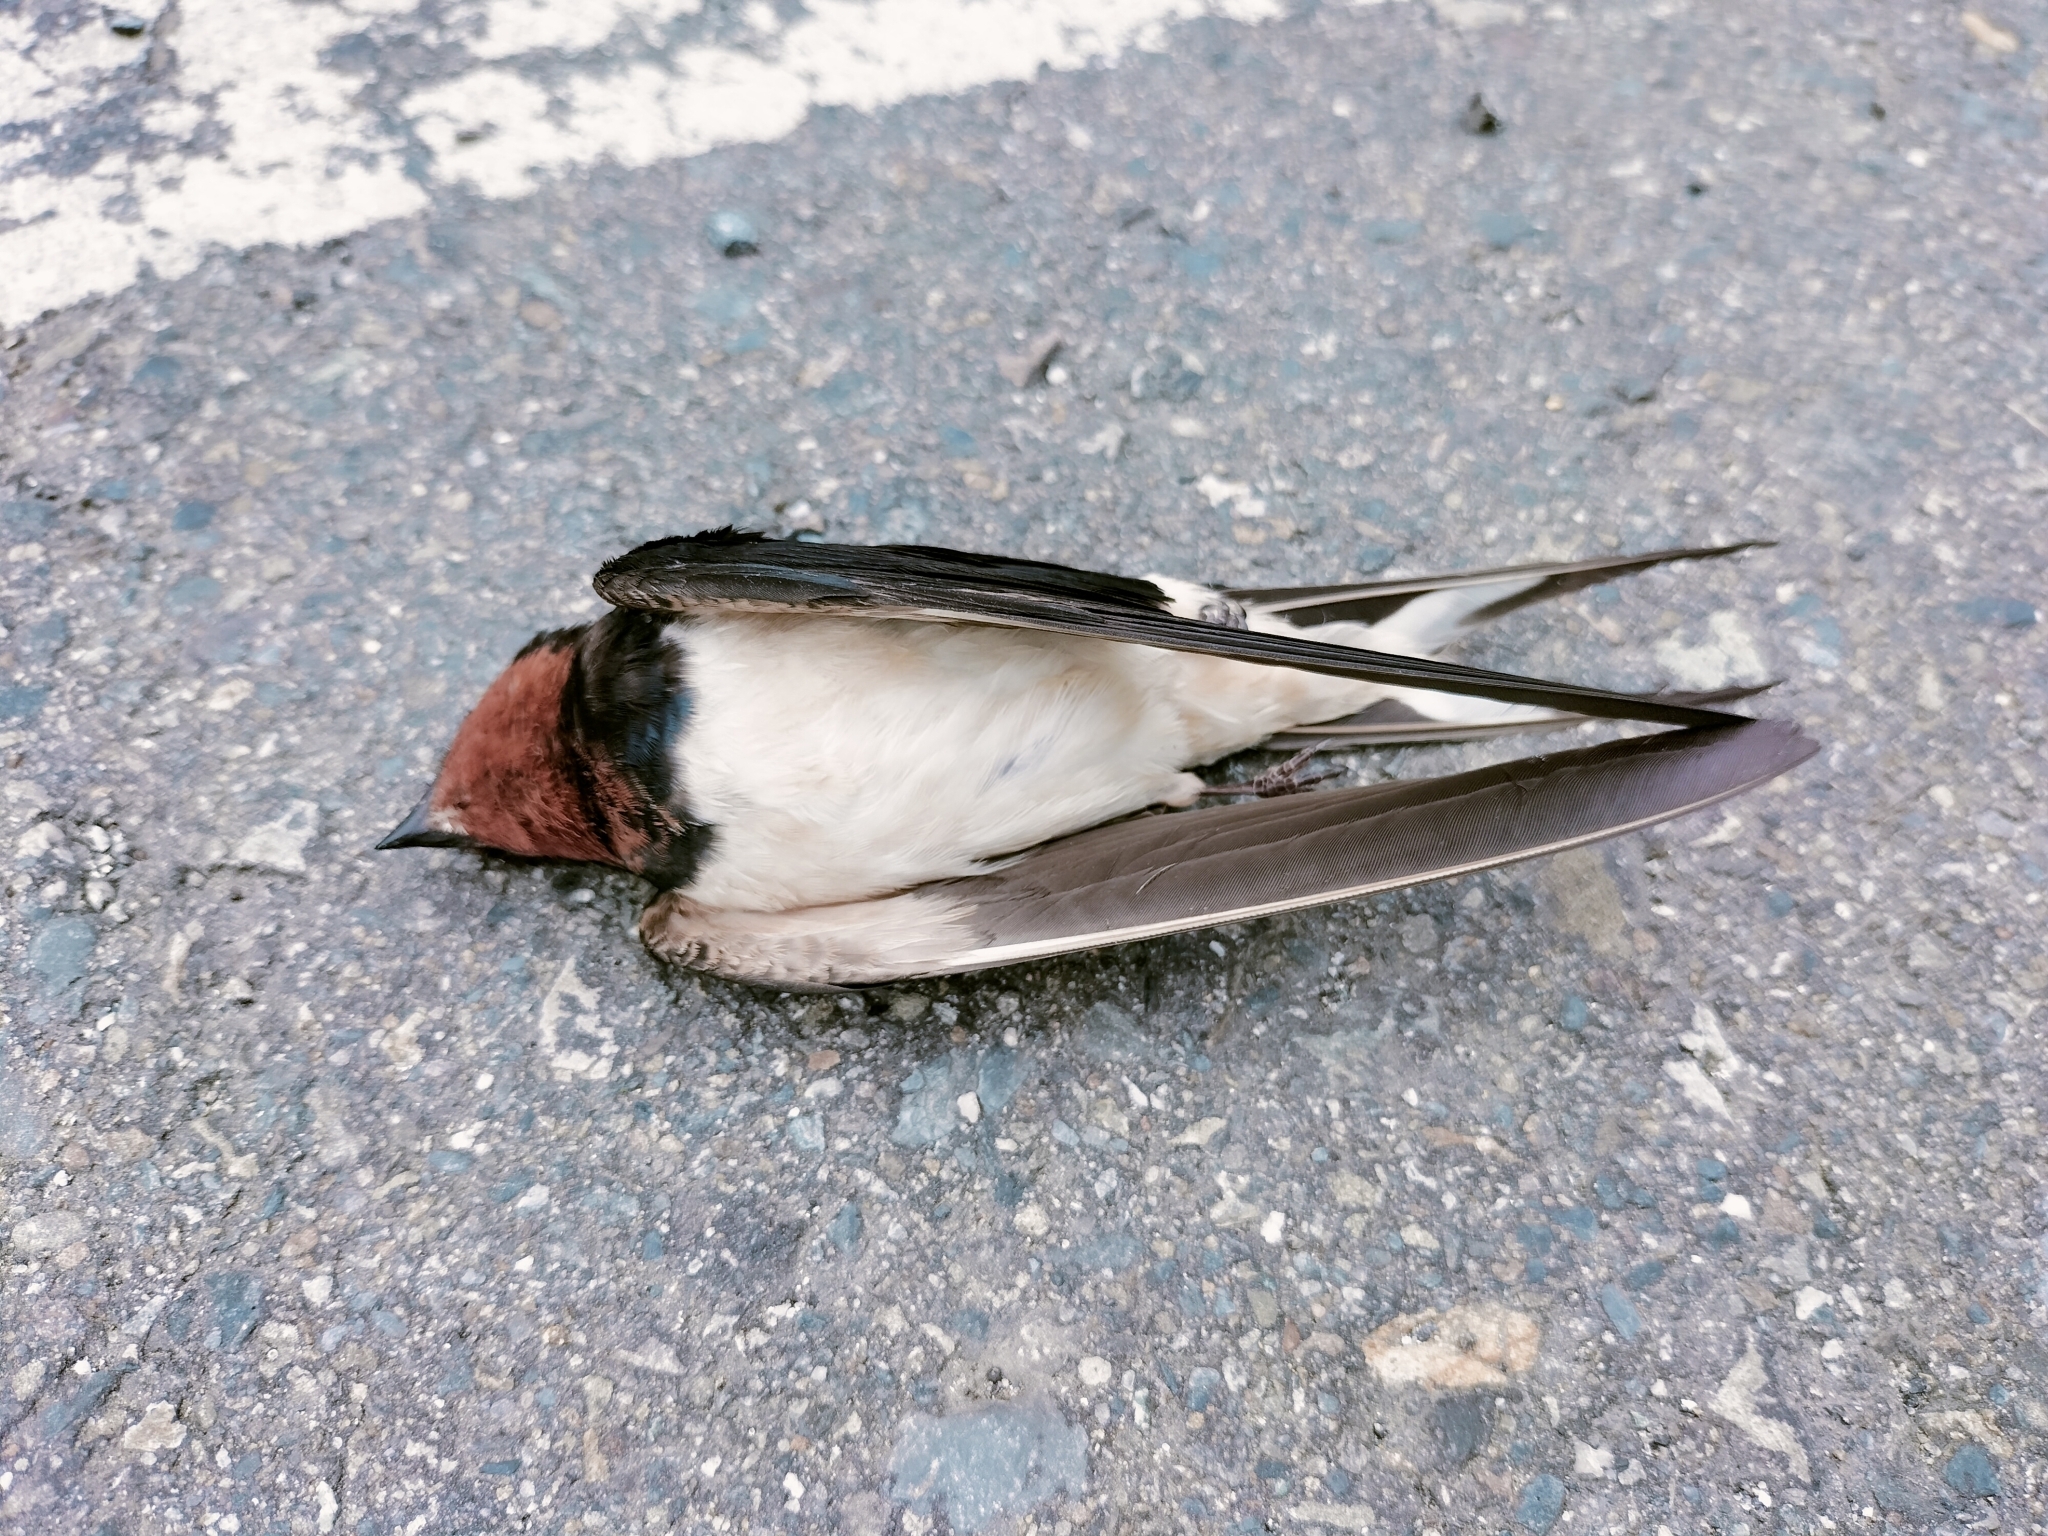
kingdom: Animalia
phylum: Chordata
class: Aves
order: Passeriformes
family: Hirundinidae
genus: Hirundo
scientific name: Hirundo rustica
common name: Barn swallow
